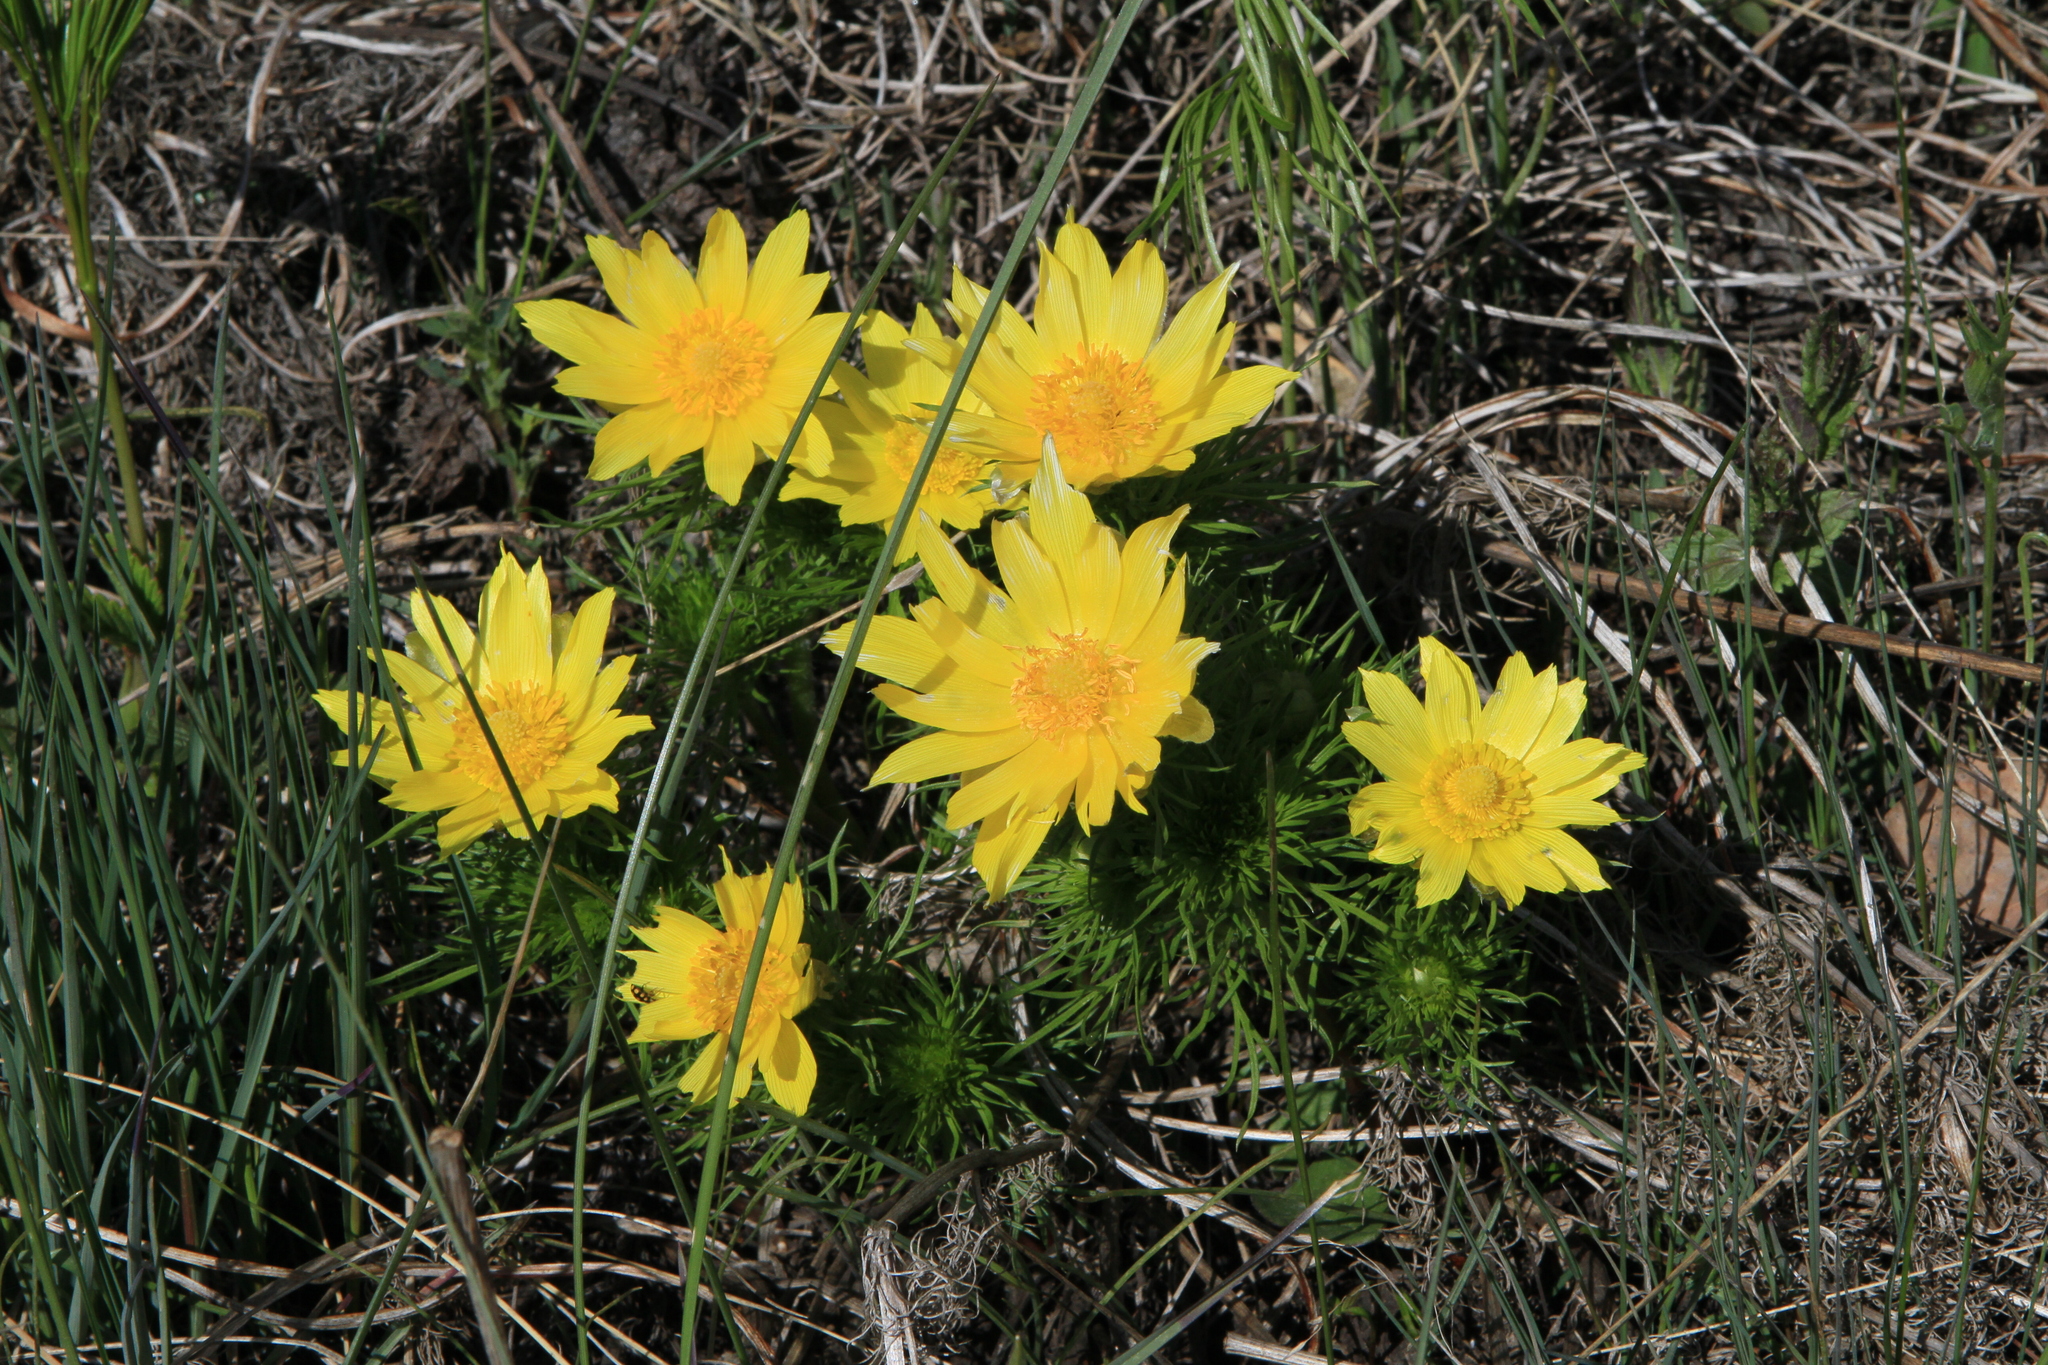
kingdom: Plantae
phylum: Tracheophyta
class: Magnoliopsida
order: Ranunculales
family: Ranunculaceae
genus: Adonis
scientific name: Adonis vernalis
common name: Yellow pheasants-eye
